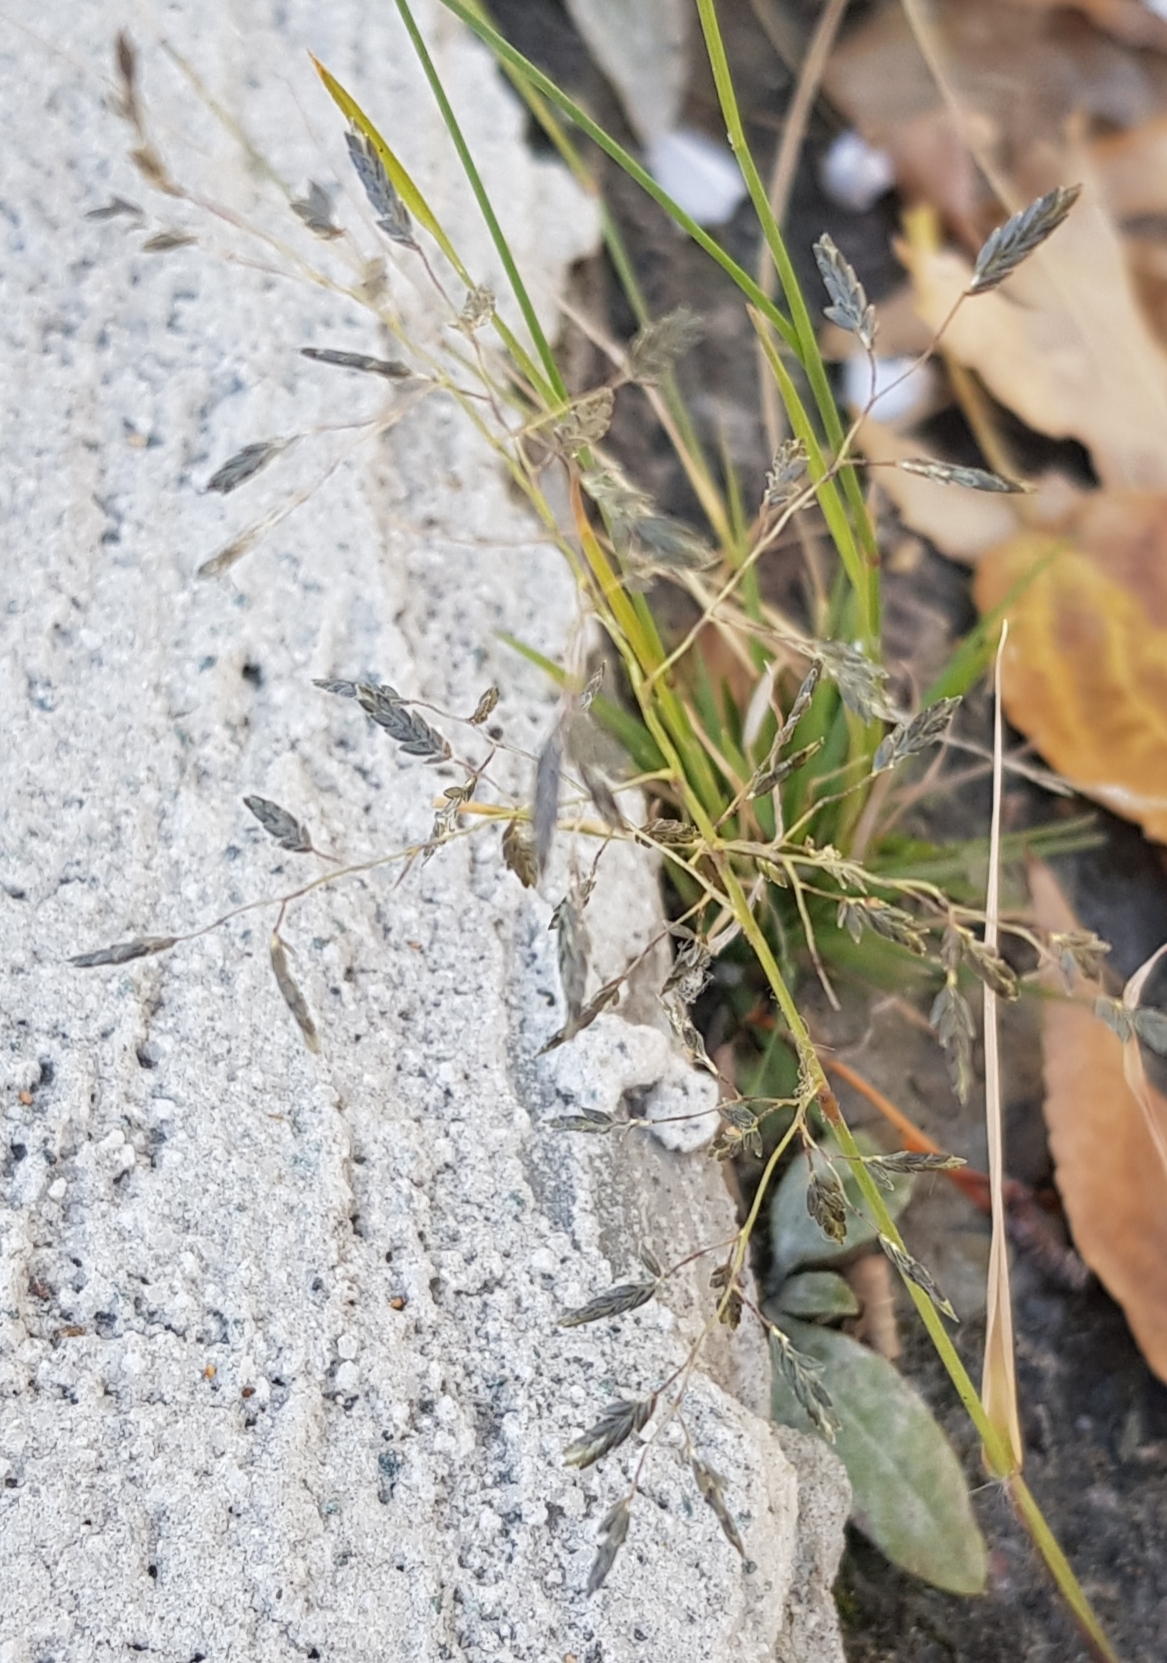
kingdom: Plantae
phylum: Tracheophyta
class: Liliopsida
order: Poales
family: Poaceae
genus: Eragrostis
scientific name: Eragrostis minor
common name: Small love-grass
